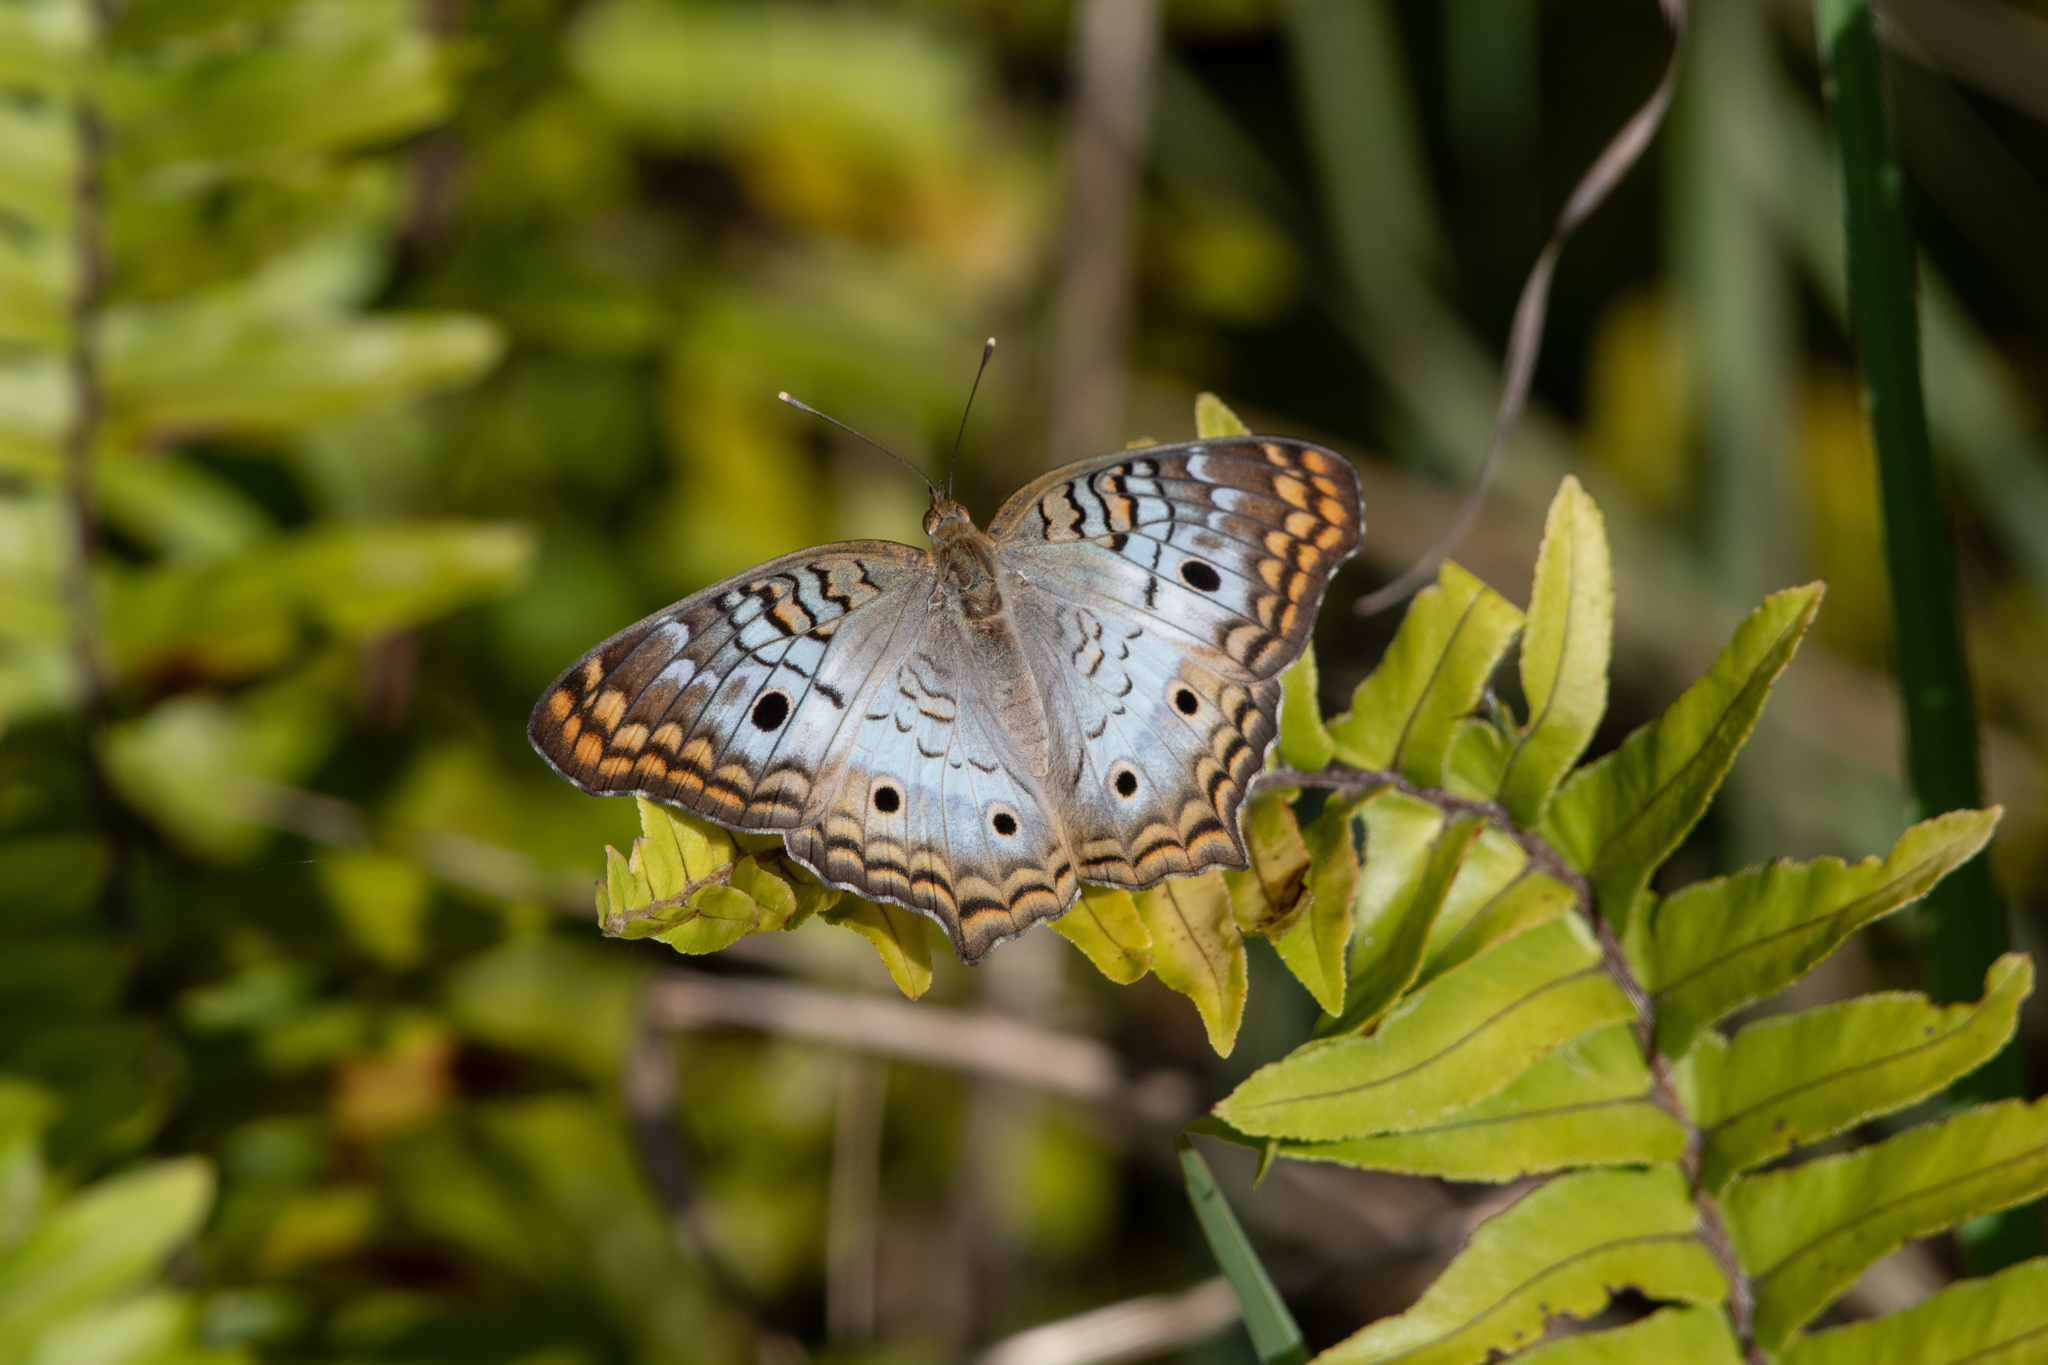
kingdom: Animalia
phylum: Arthropoda
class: Insecta
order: Lepidoptera
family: Nymphalidae
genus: Anartia
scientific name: Anartia jatrophae
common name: White peacock
